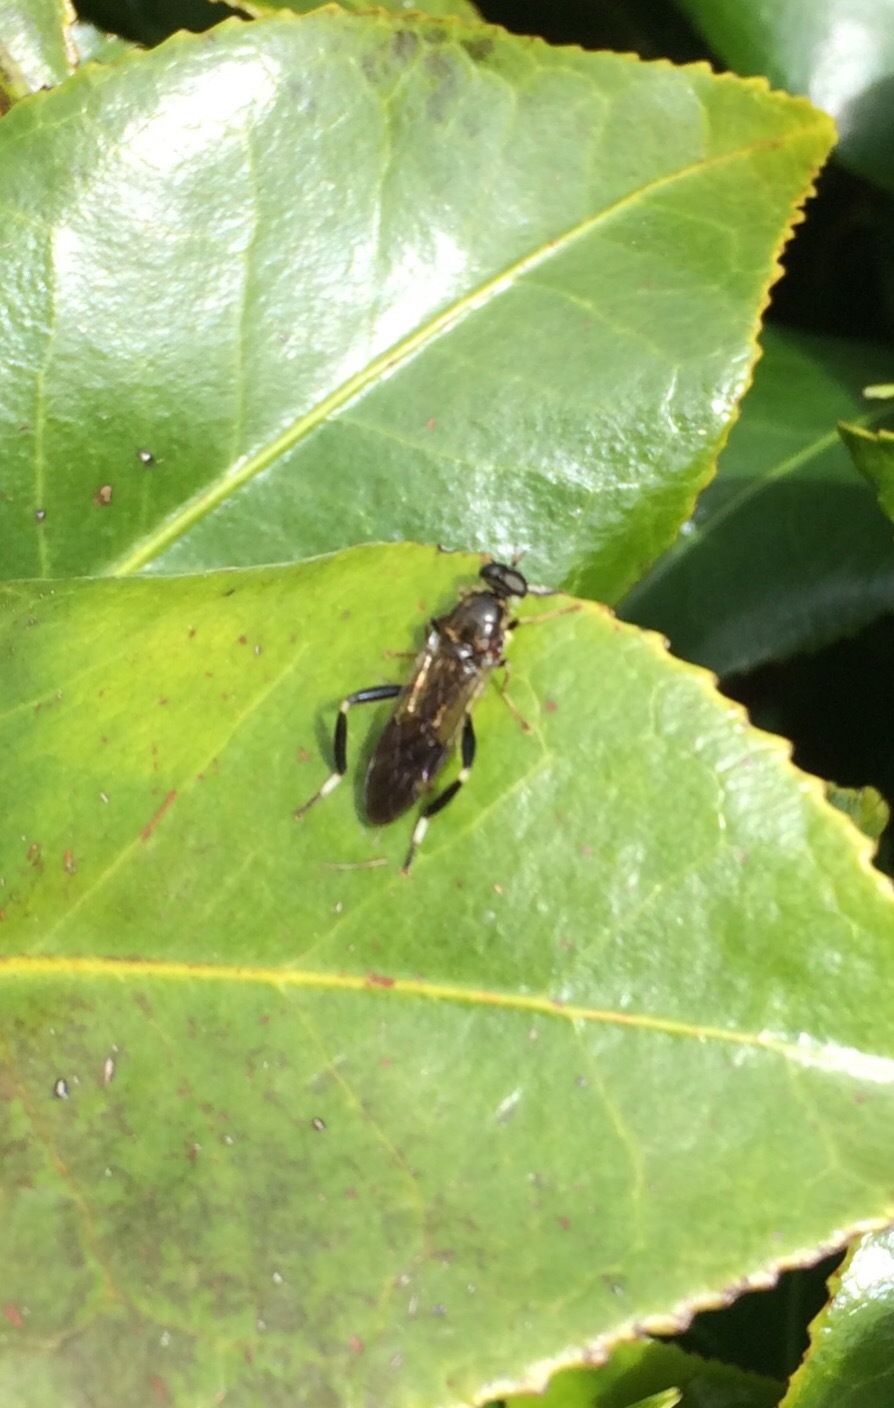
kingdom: Animalia
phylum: Arthropoda
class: Insecta
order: Diptera
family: Stratiomyidae
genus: Exaireta
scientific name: Exaireta spinigera
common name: Blue soldier fly
